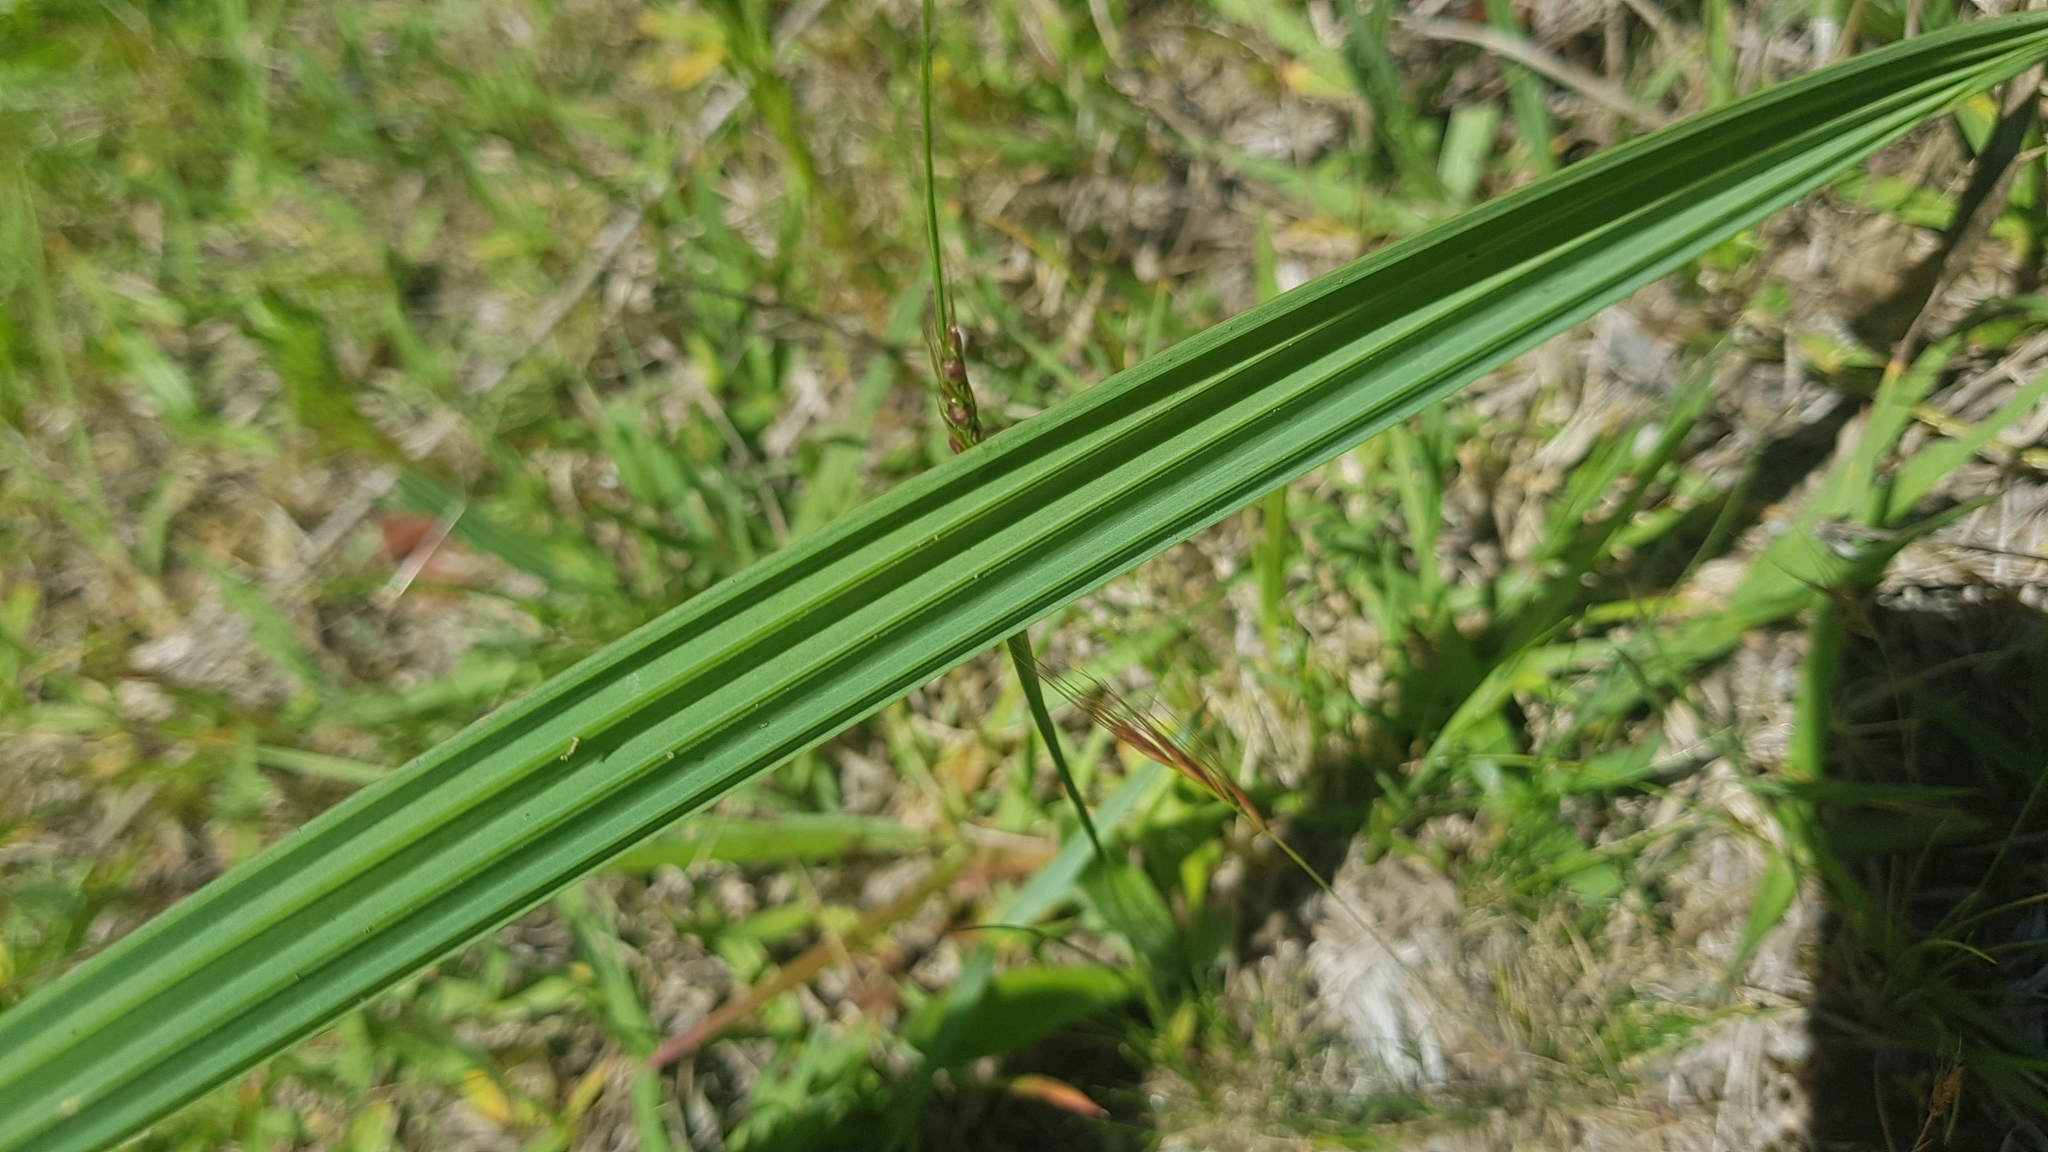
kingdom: Plantae
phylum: Tracheophyta
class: Liliopsida
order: Asparagales
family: Iridaceae
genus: Gelasine
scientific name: Gelasine elongata
